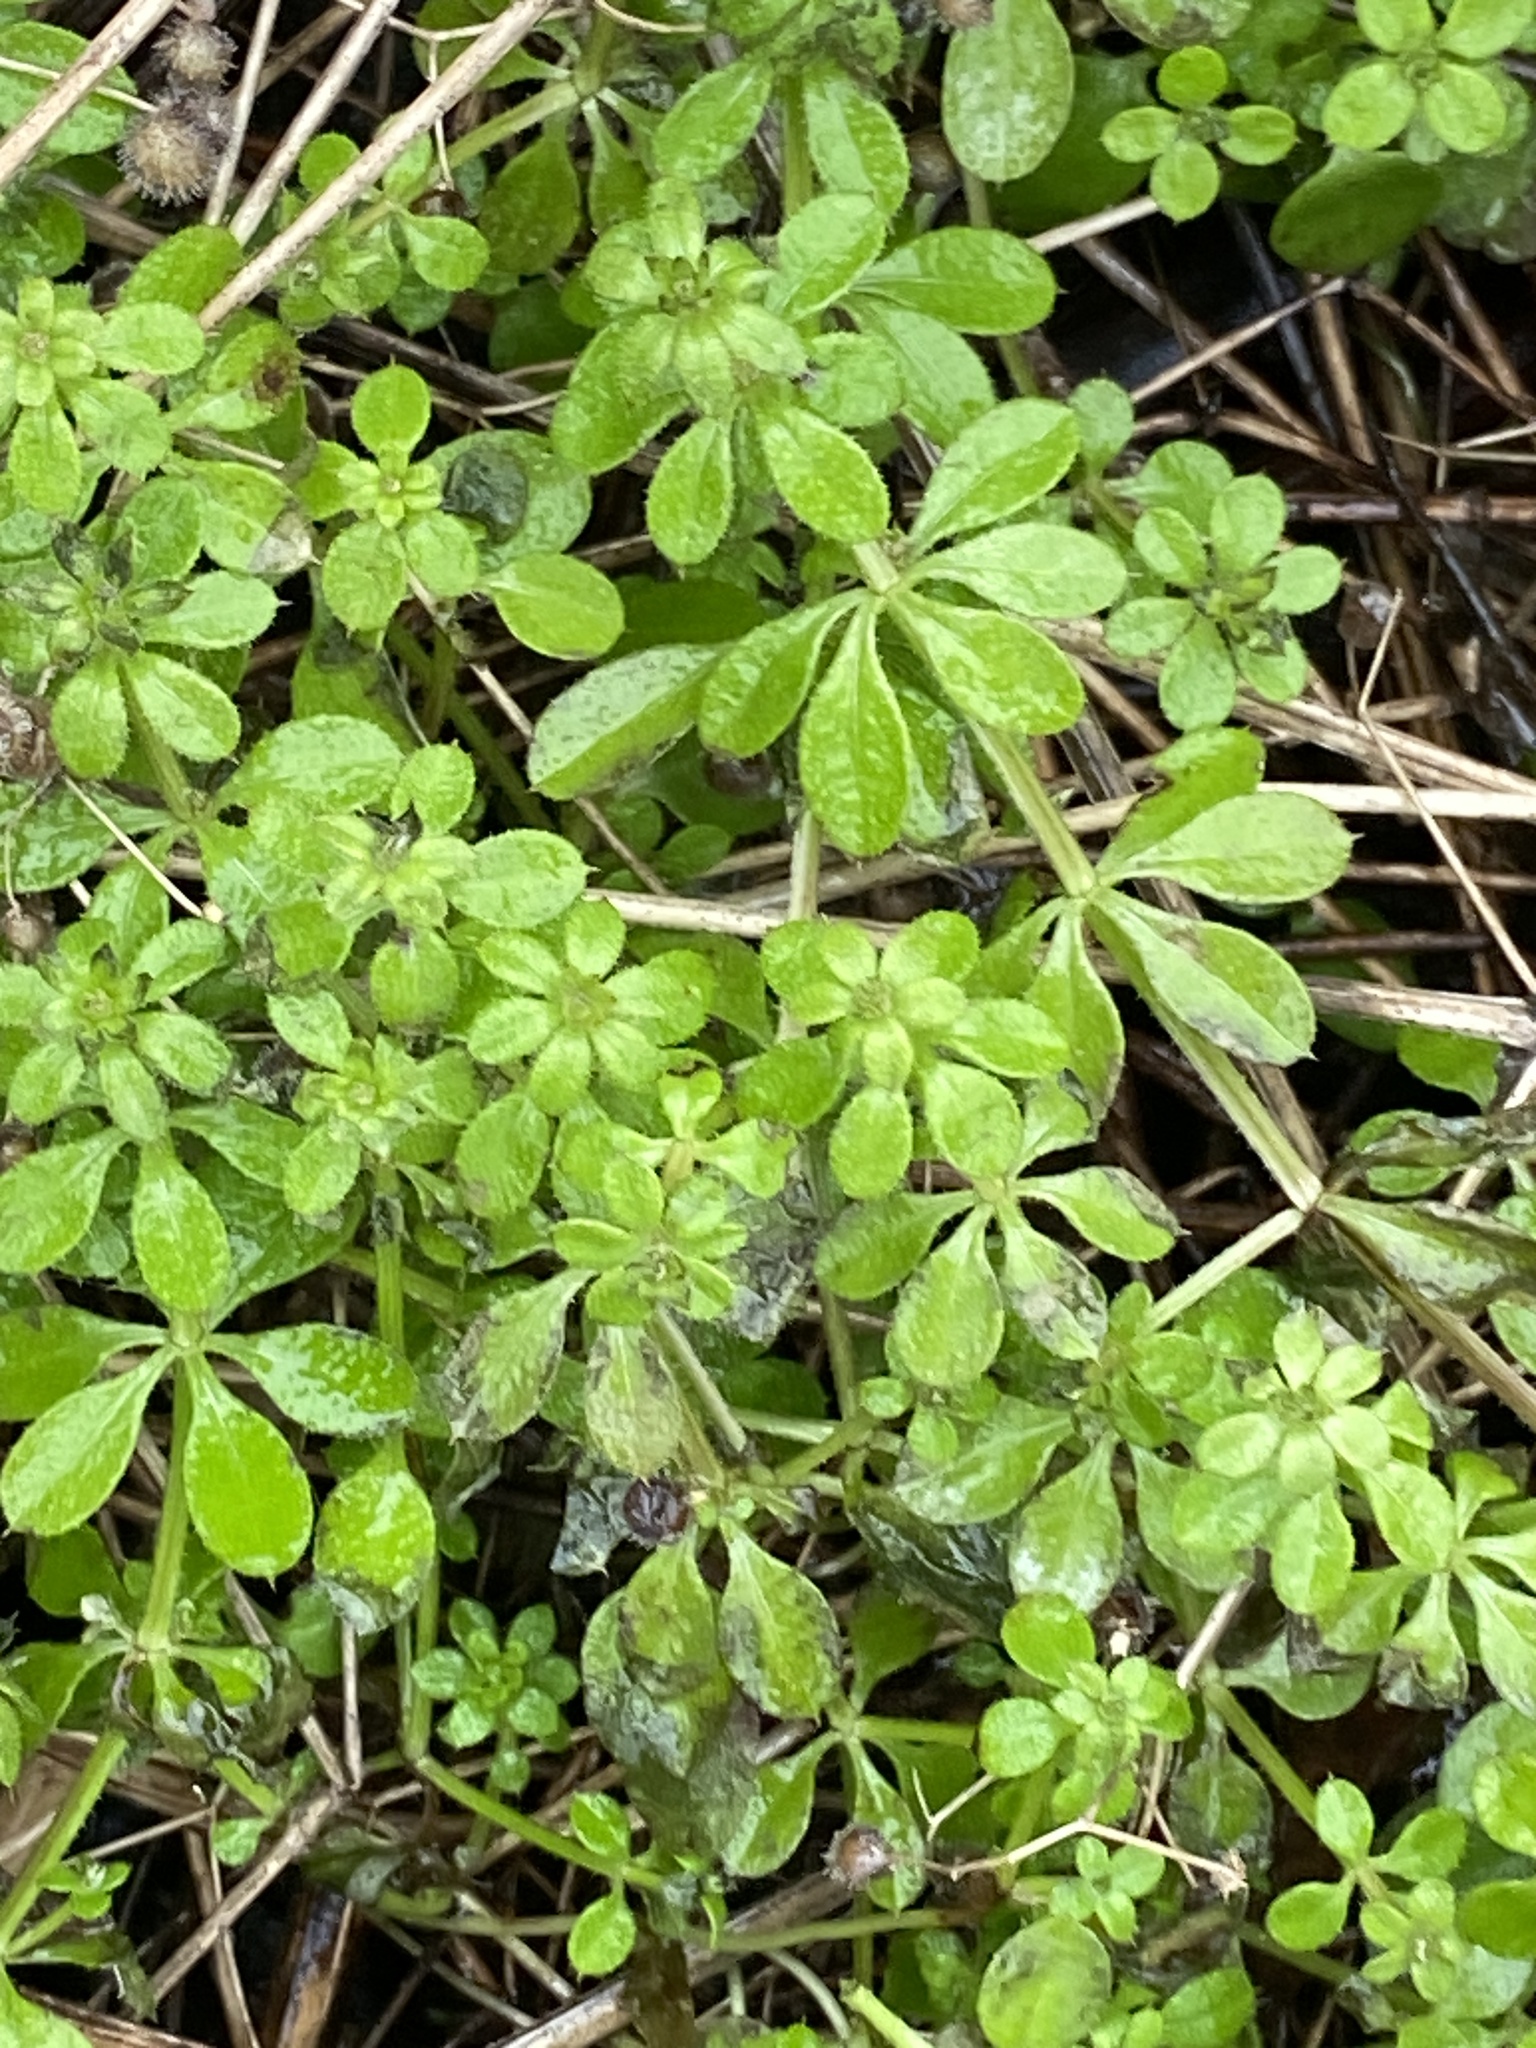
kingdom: Plantae
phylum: Tracheophyta
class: Magnoliopsida
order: Sapindales
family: Simaroubaceae
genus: Ailanthus
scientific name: Ailanthus altissima
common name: Tree-of-heaven
